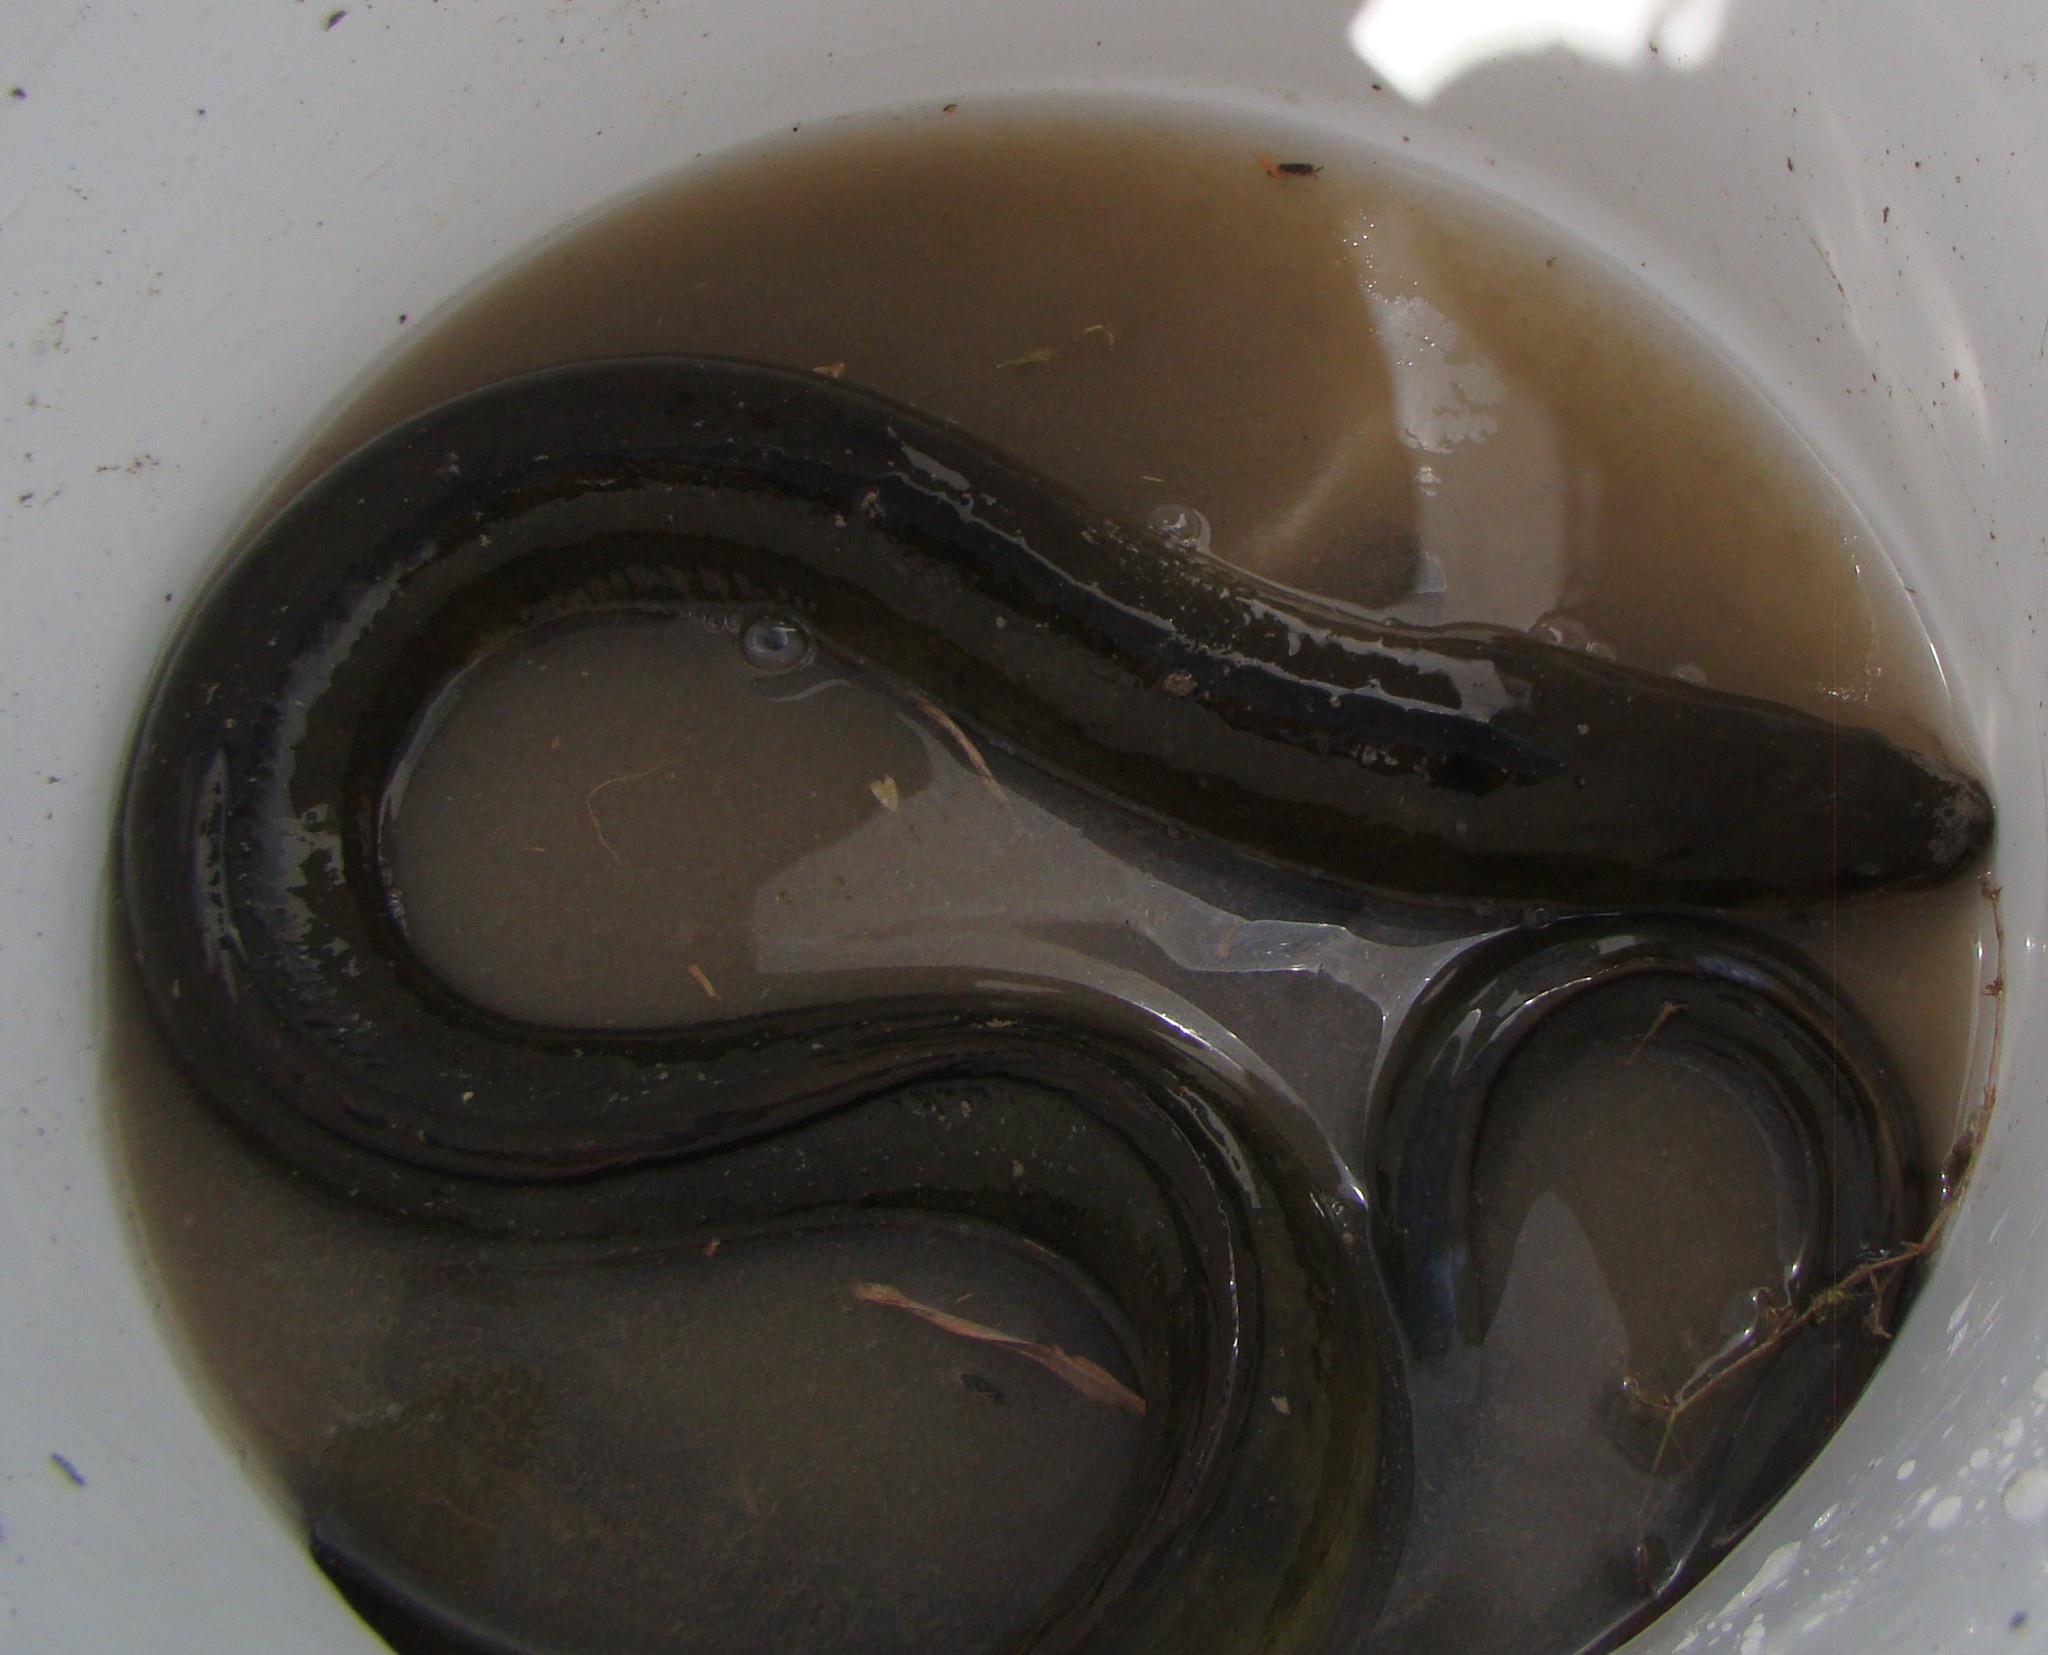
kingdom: Animalia
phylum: Chordata
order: Anguilliformes
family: Anguillidae
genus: Anguilla
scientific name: Anguilla australis
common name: Shortfin eel
